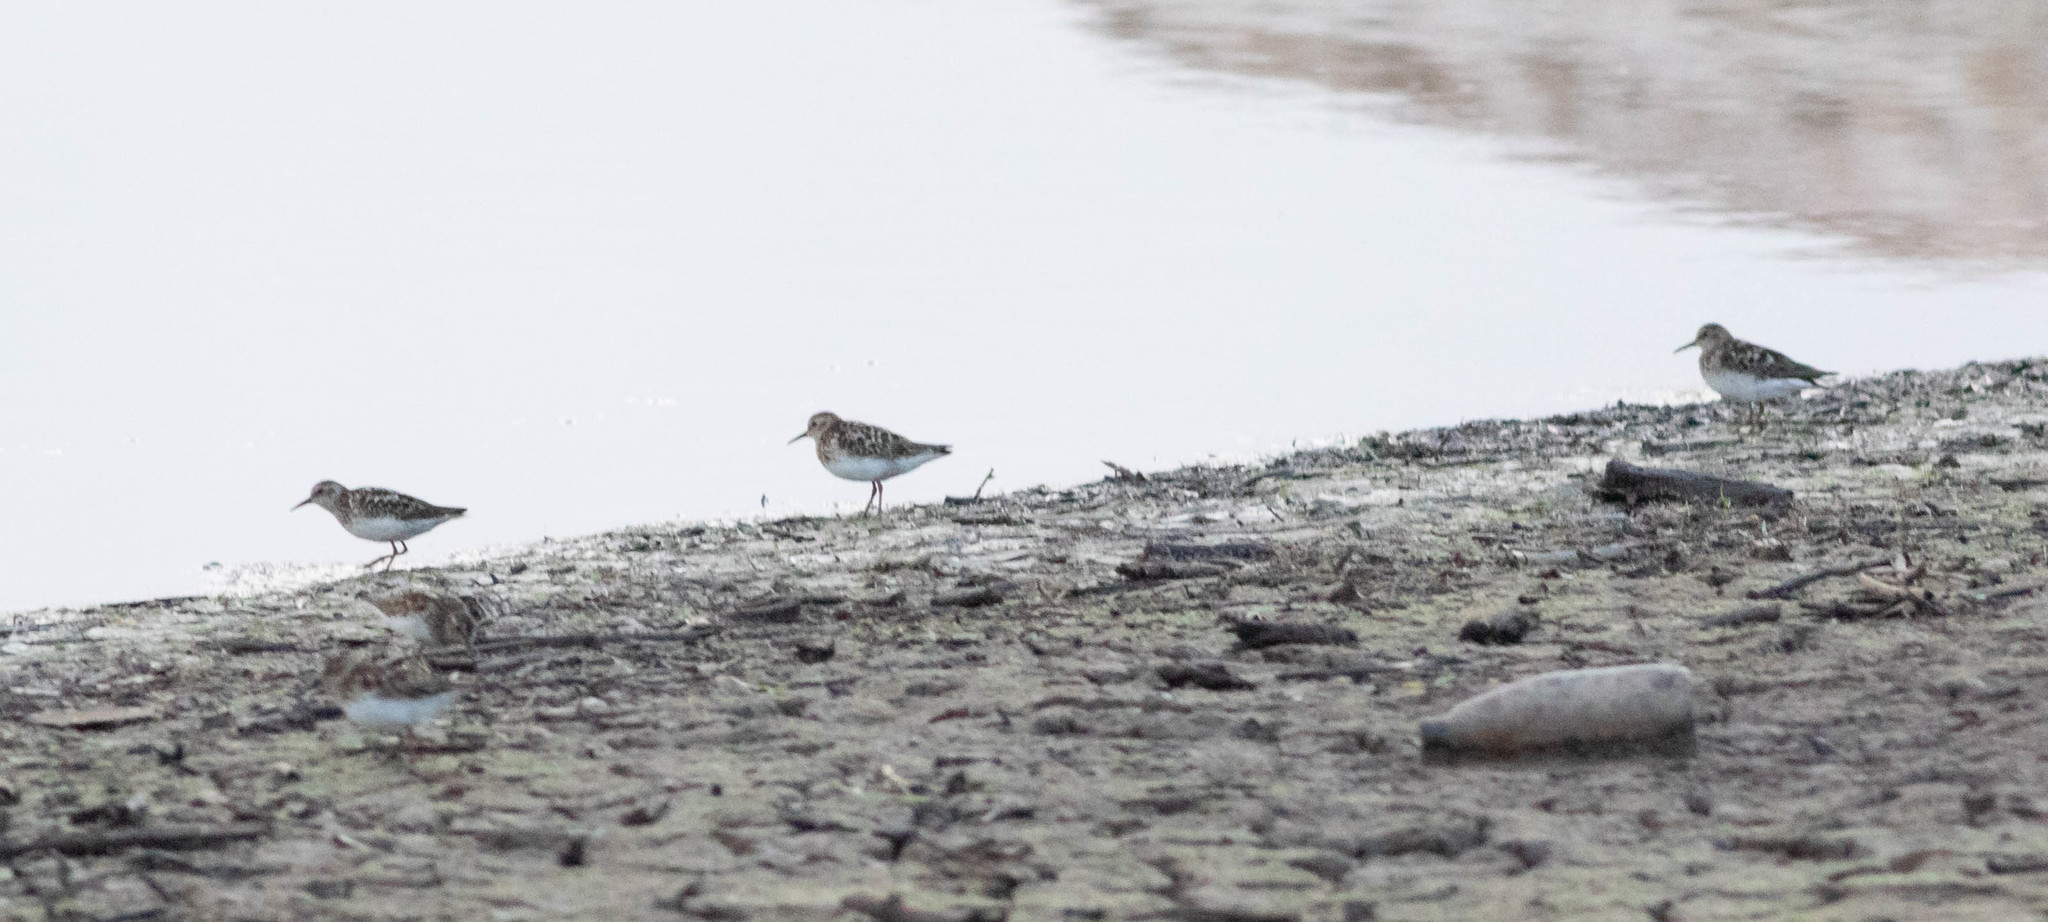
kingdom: Animalia
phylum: Chordata
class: Aves
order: Charadriiformes
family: Scolopacidae
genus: Calidris
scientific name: Calidris minutilla
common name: Least sandpiper
